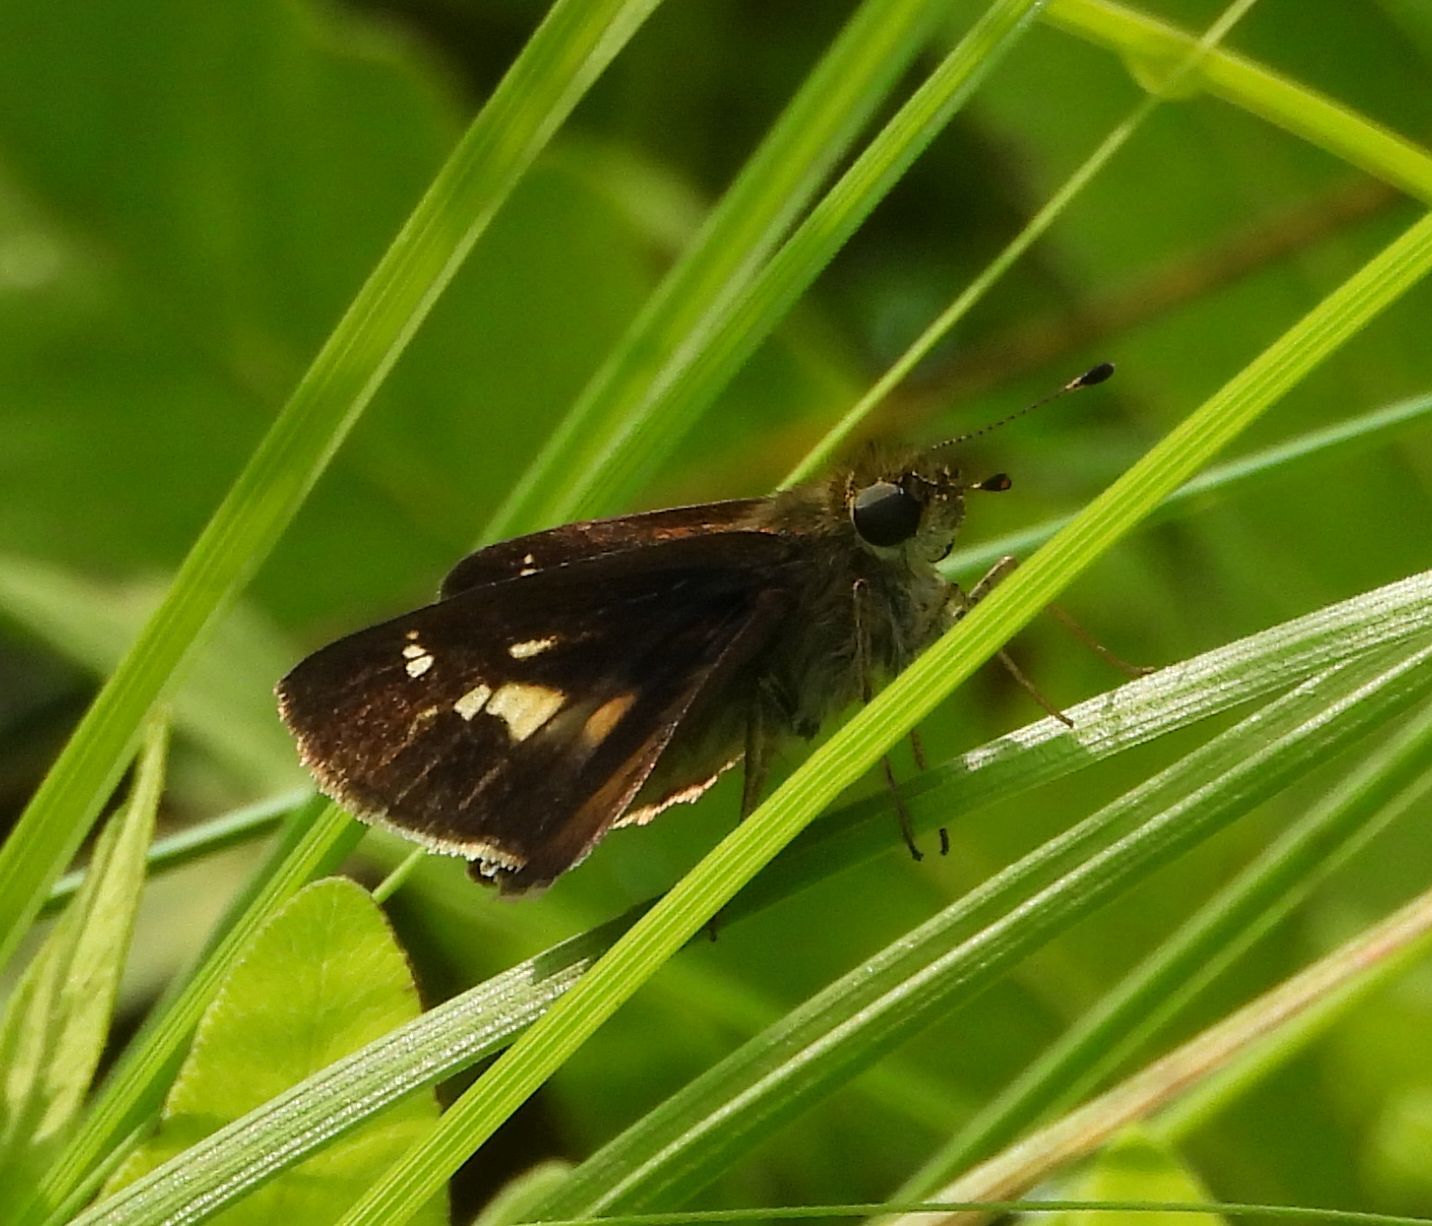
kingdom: Animalia
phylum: Arthropoda
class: Insecta
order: Lepidoptera
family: Hesperiidae
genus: Vernia
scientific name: Vernia verna
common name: Little glassywing
